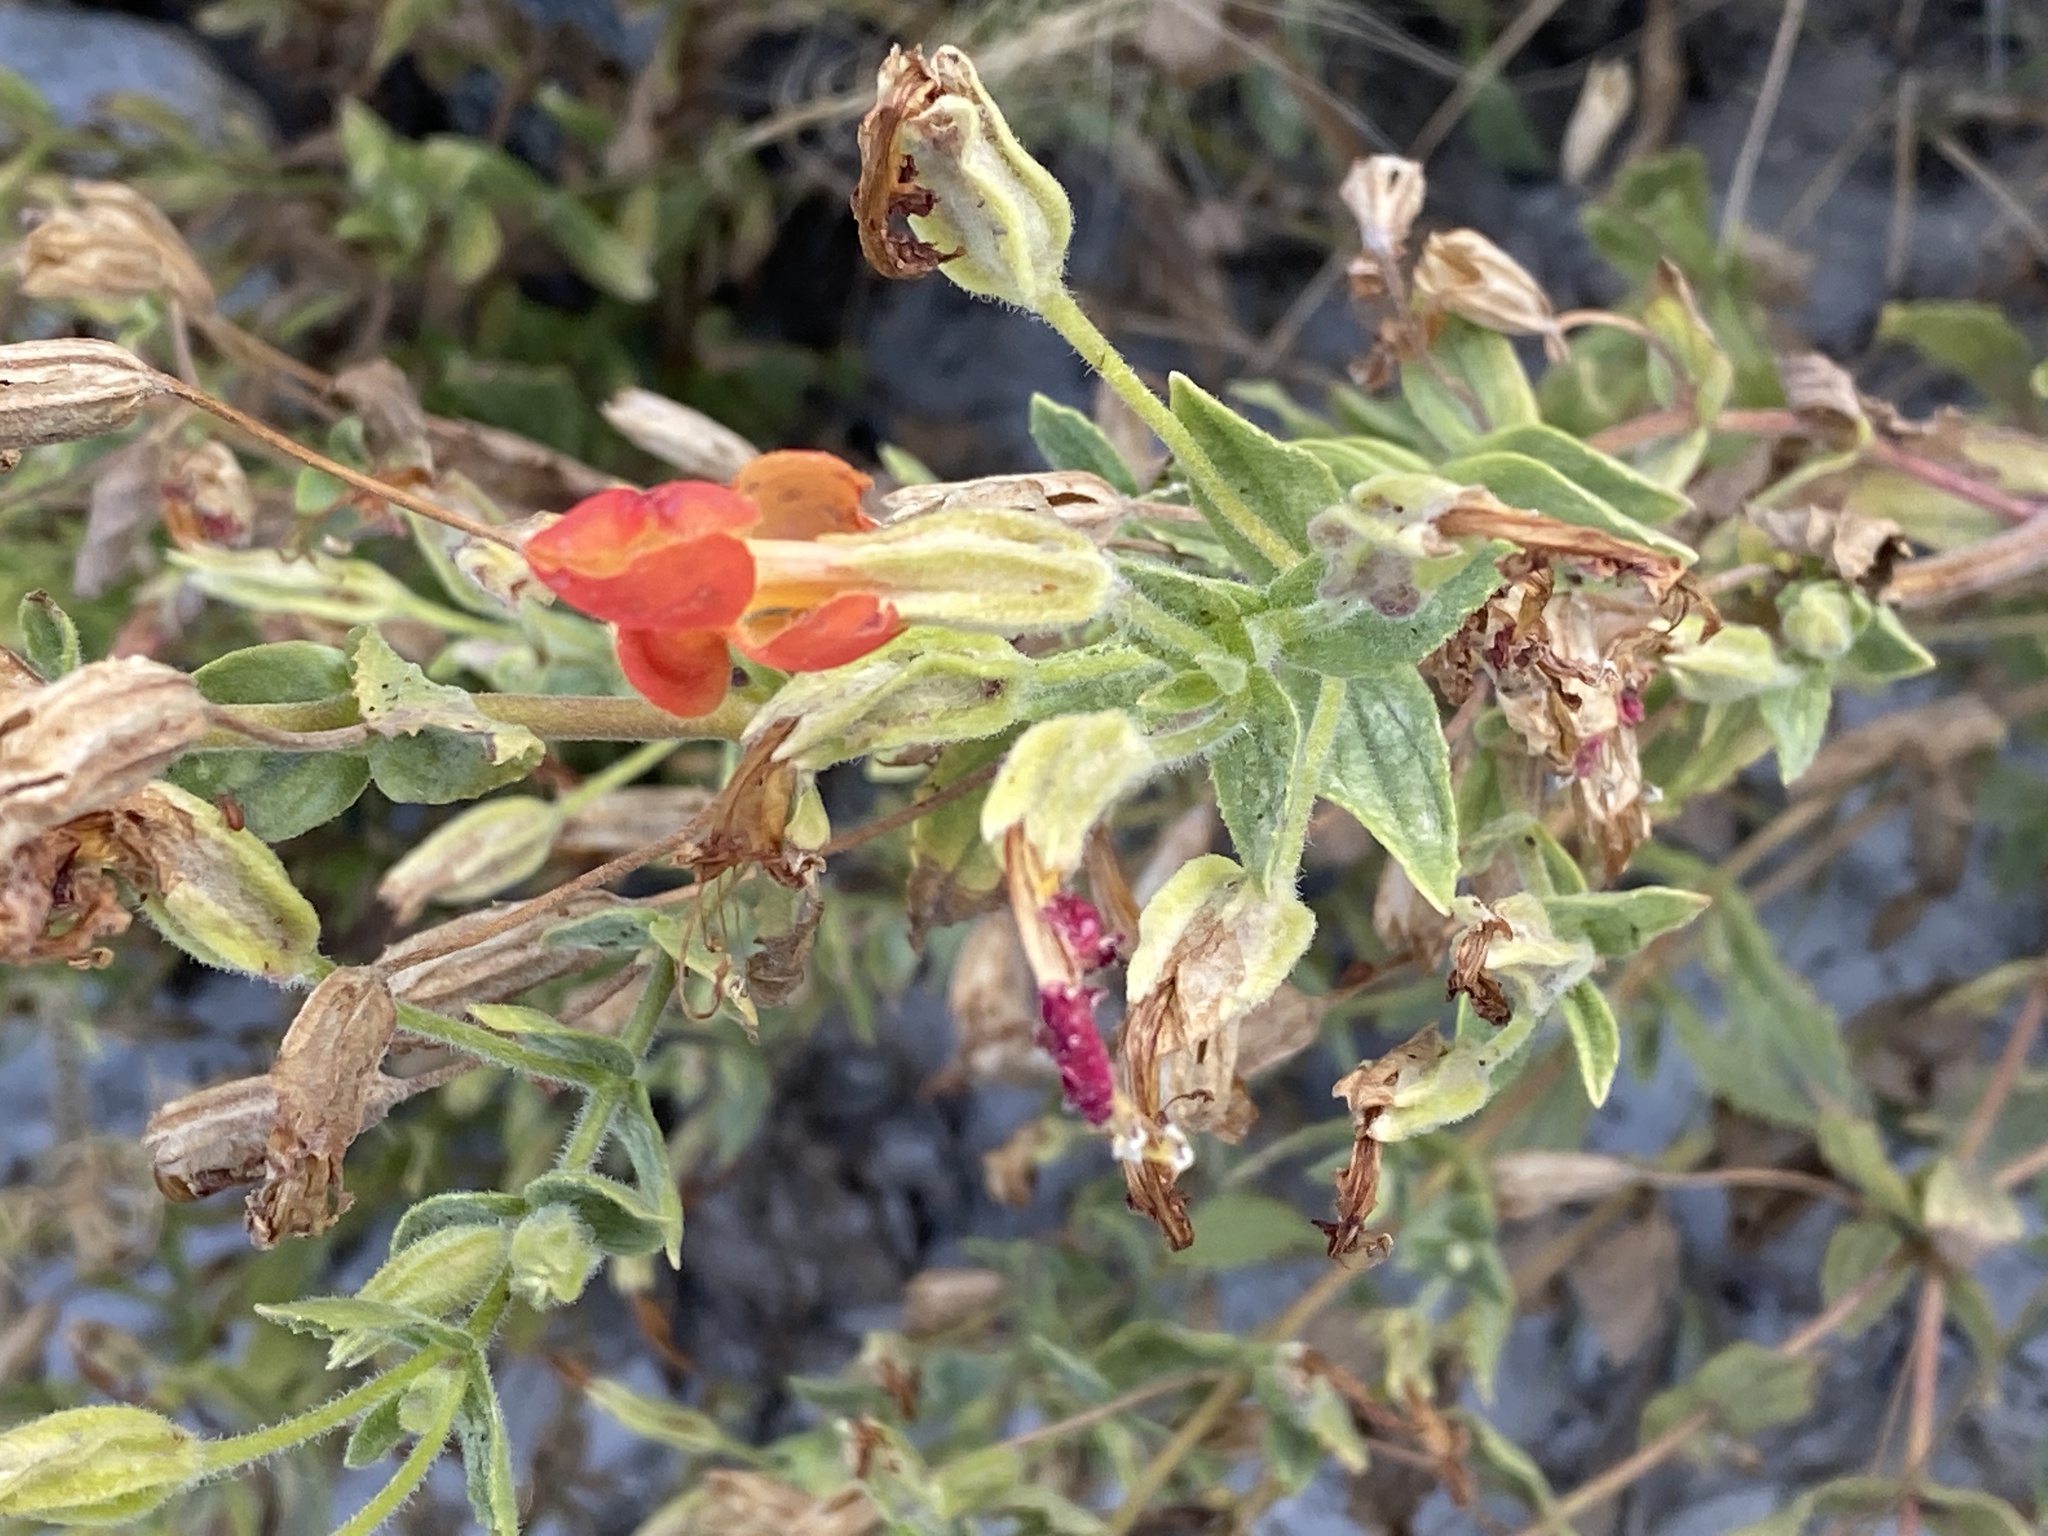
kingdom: Plantae
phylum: Tracheophyta
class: Magnoliopsida
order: Lamiales
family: Phrymaceae
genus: Erythranthe
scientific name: Erythranthe cardinalis
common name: Scarlet monkey-flower
